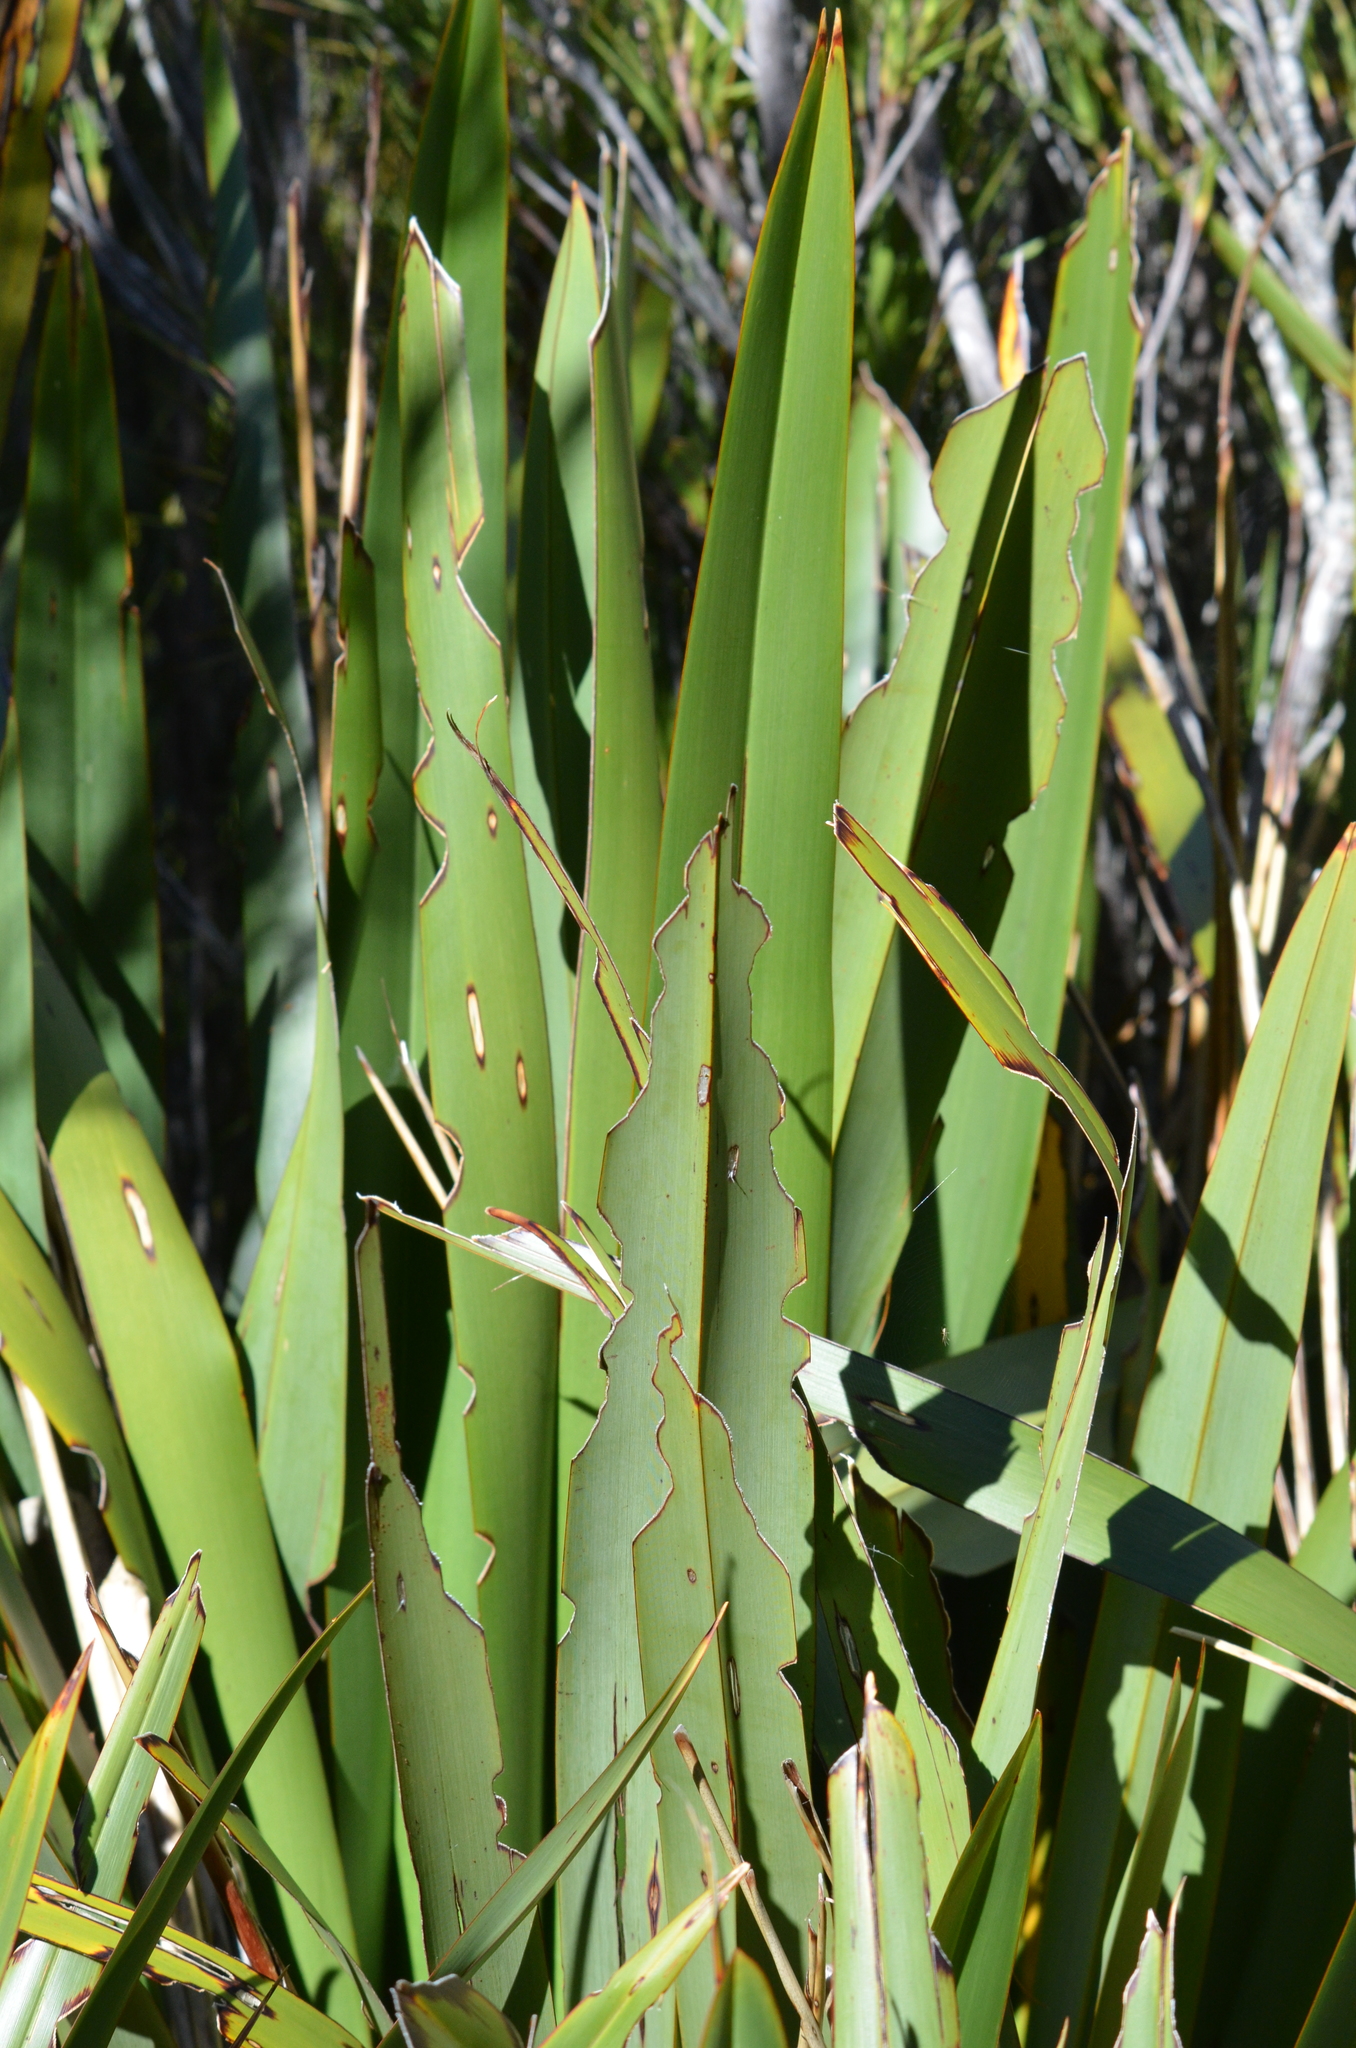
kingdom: Animalia
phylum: Arthropoda
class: Insecta
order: Lepidoptera
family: Noctuidae
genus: Ichneutica
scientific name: Ichneutica
